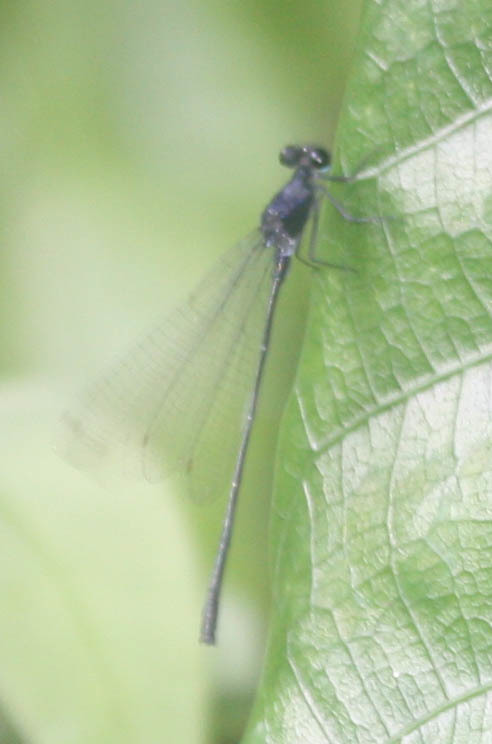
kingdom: Animalia
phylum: Arthropoda
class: Insecta
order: Odonata
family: Platycnemididae
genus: Onychargia
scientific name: Onychargia atrocyana
